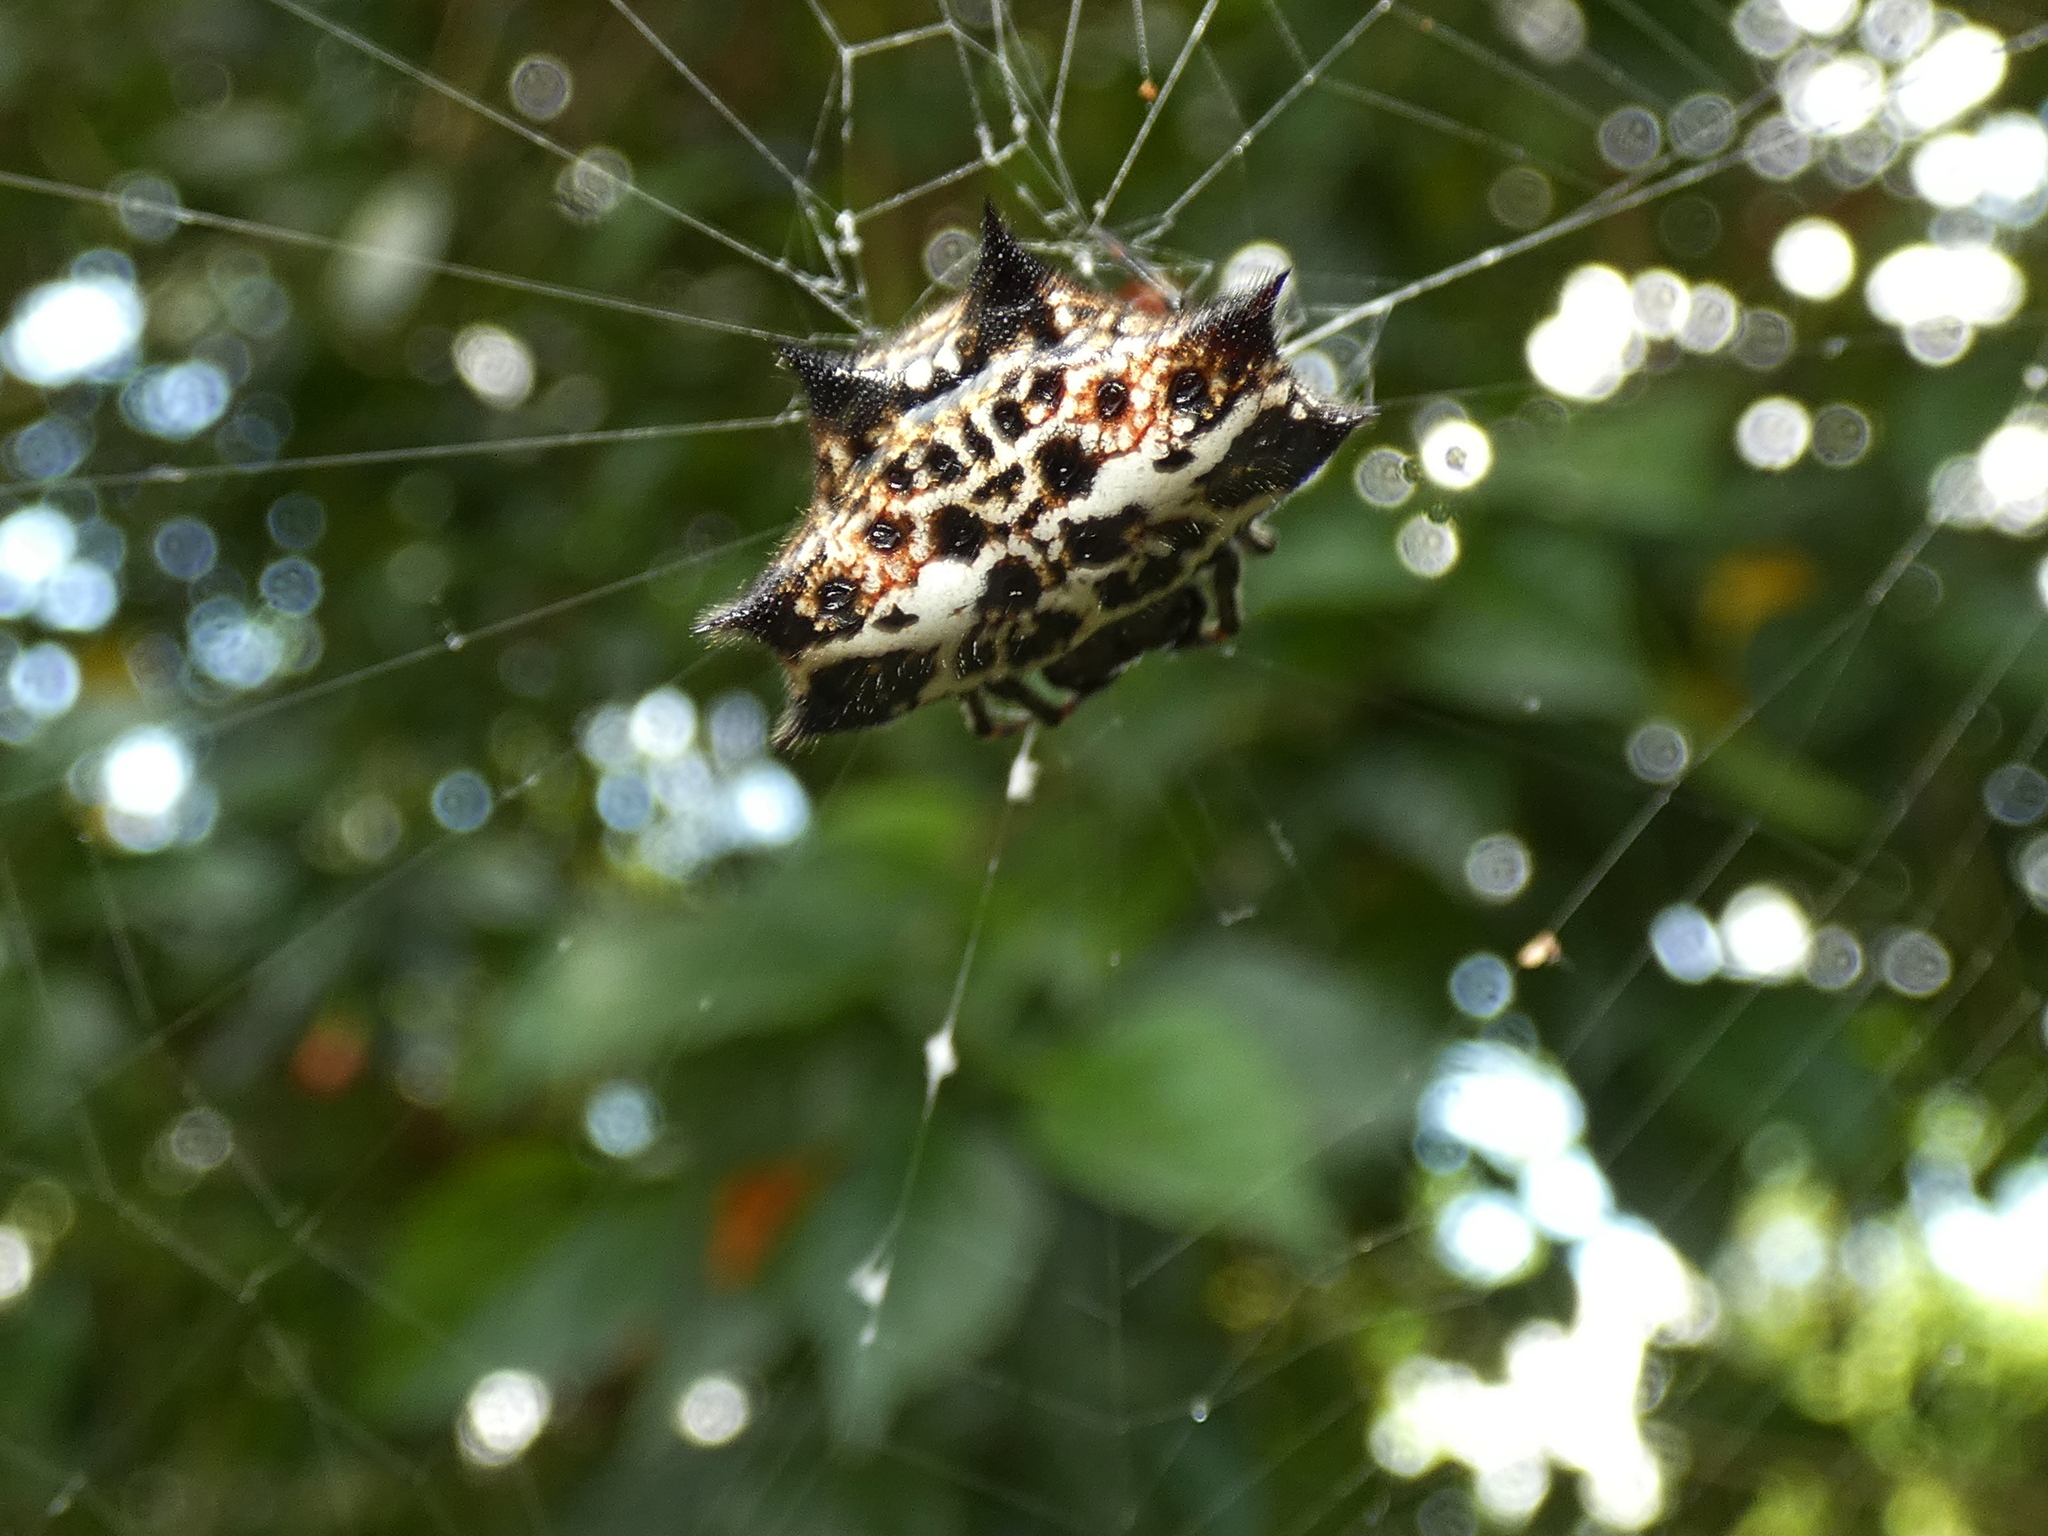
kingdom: Animalia
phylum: Arthropoda
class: Arachnida
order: Araneae
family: Araneidae
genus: Gasteracantha
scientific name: Gasteracantha cancriformis
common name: Orb weavers
